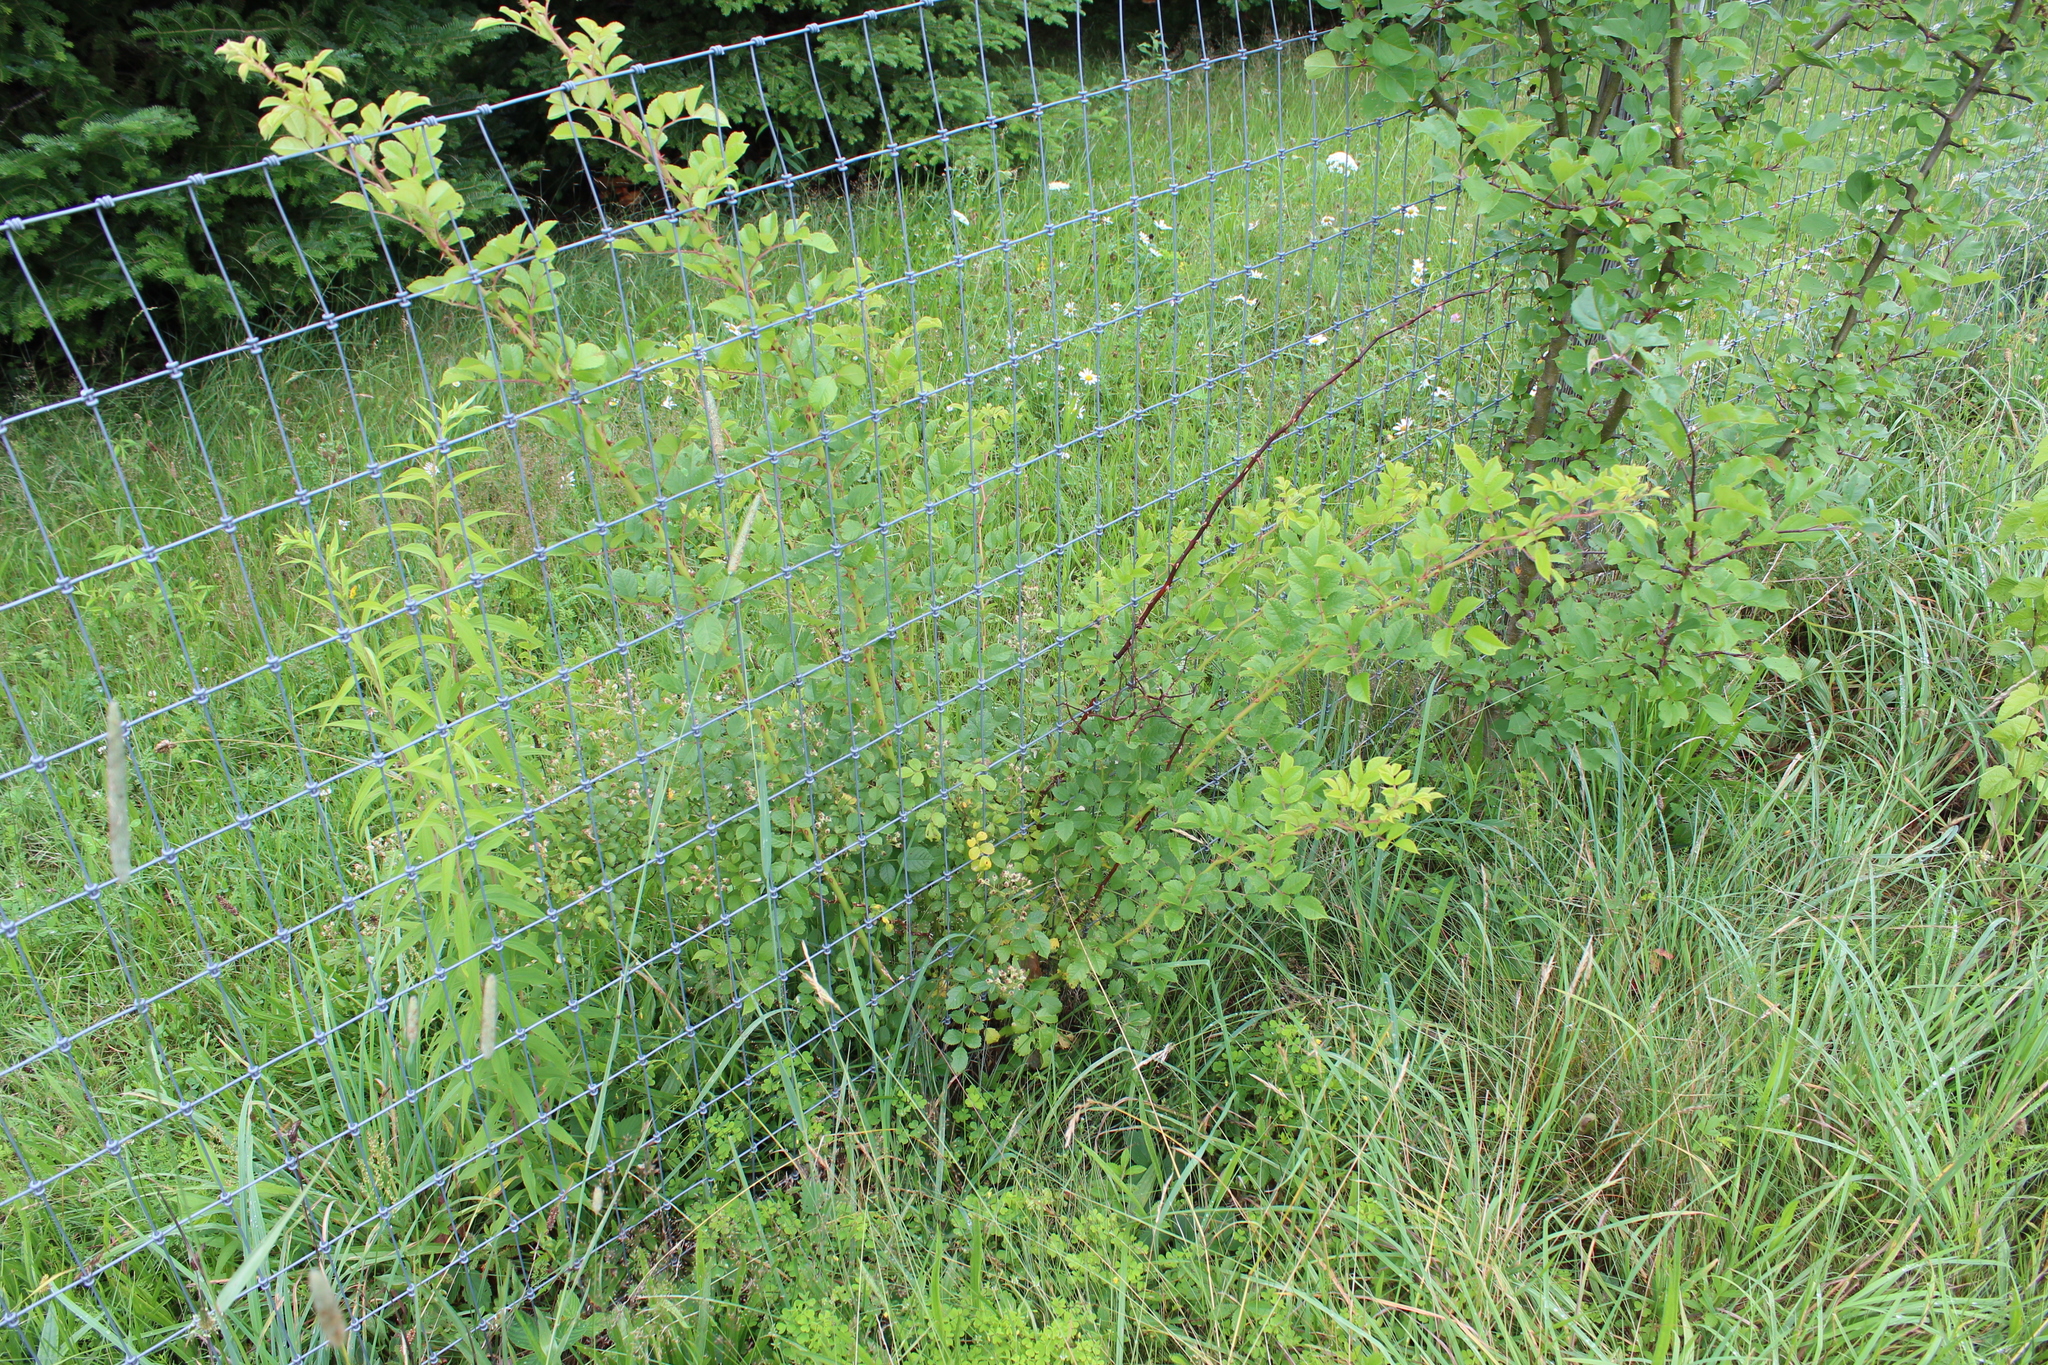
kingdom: Plantae
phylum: Tracheophyta
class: Magnoliopsida
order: Rosales
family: Rosaceae
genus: Rosa
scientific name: Rosa multiflora
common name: Multiflora rose
